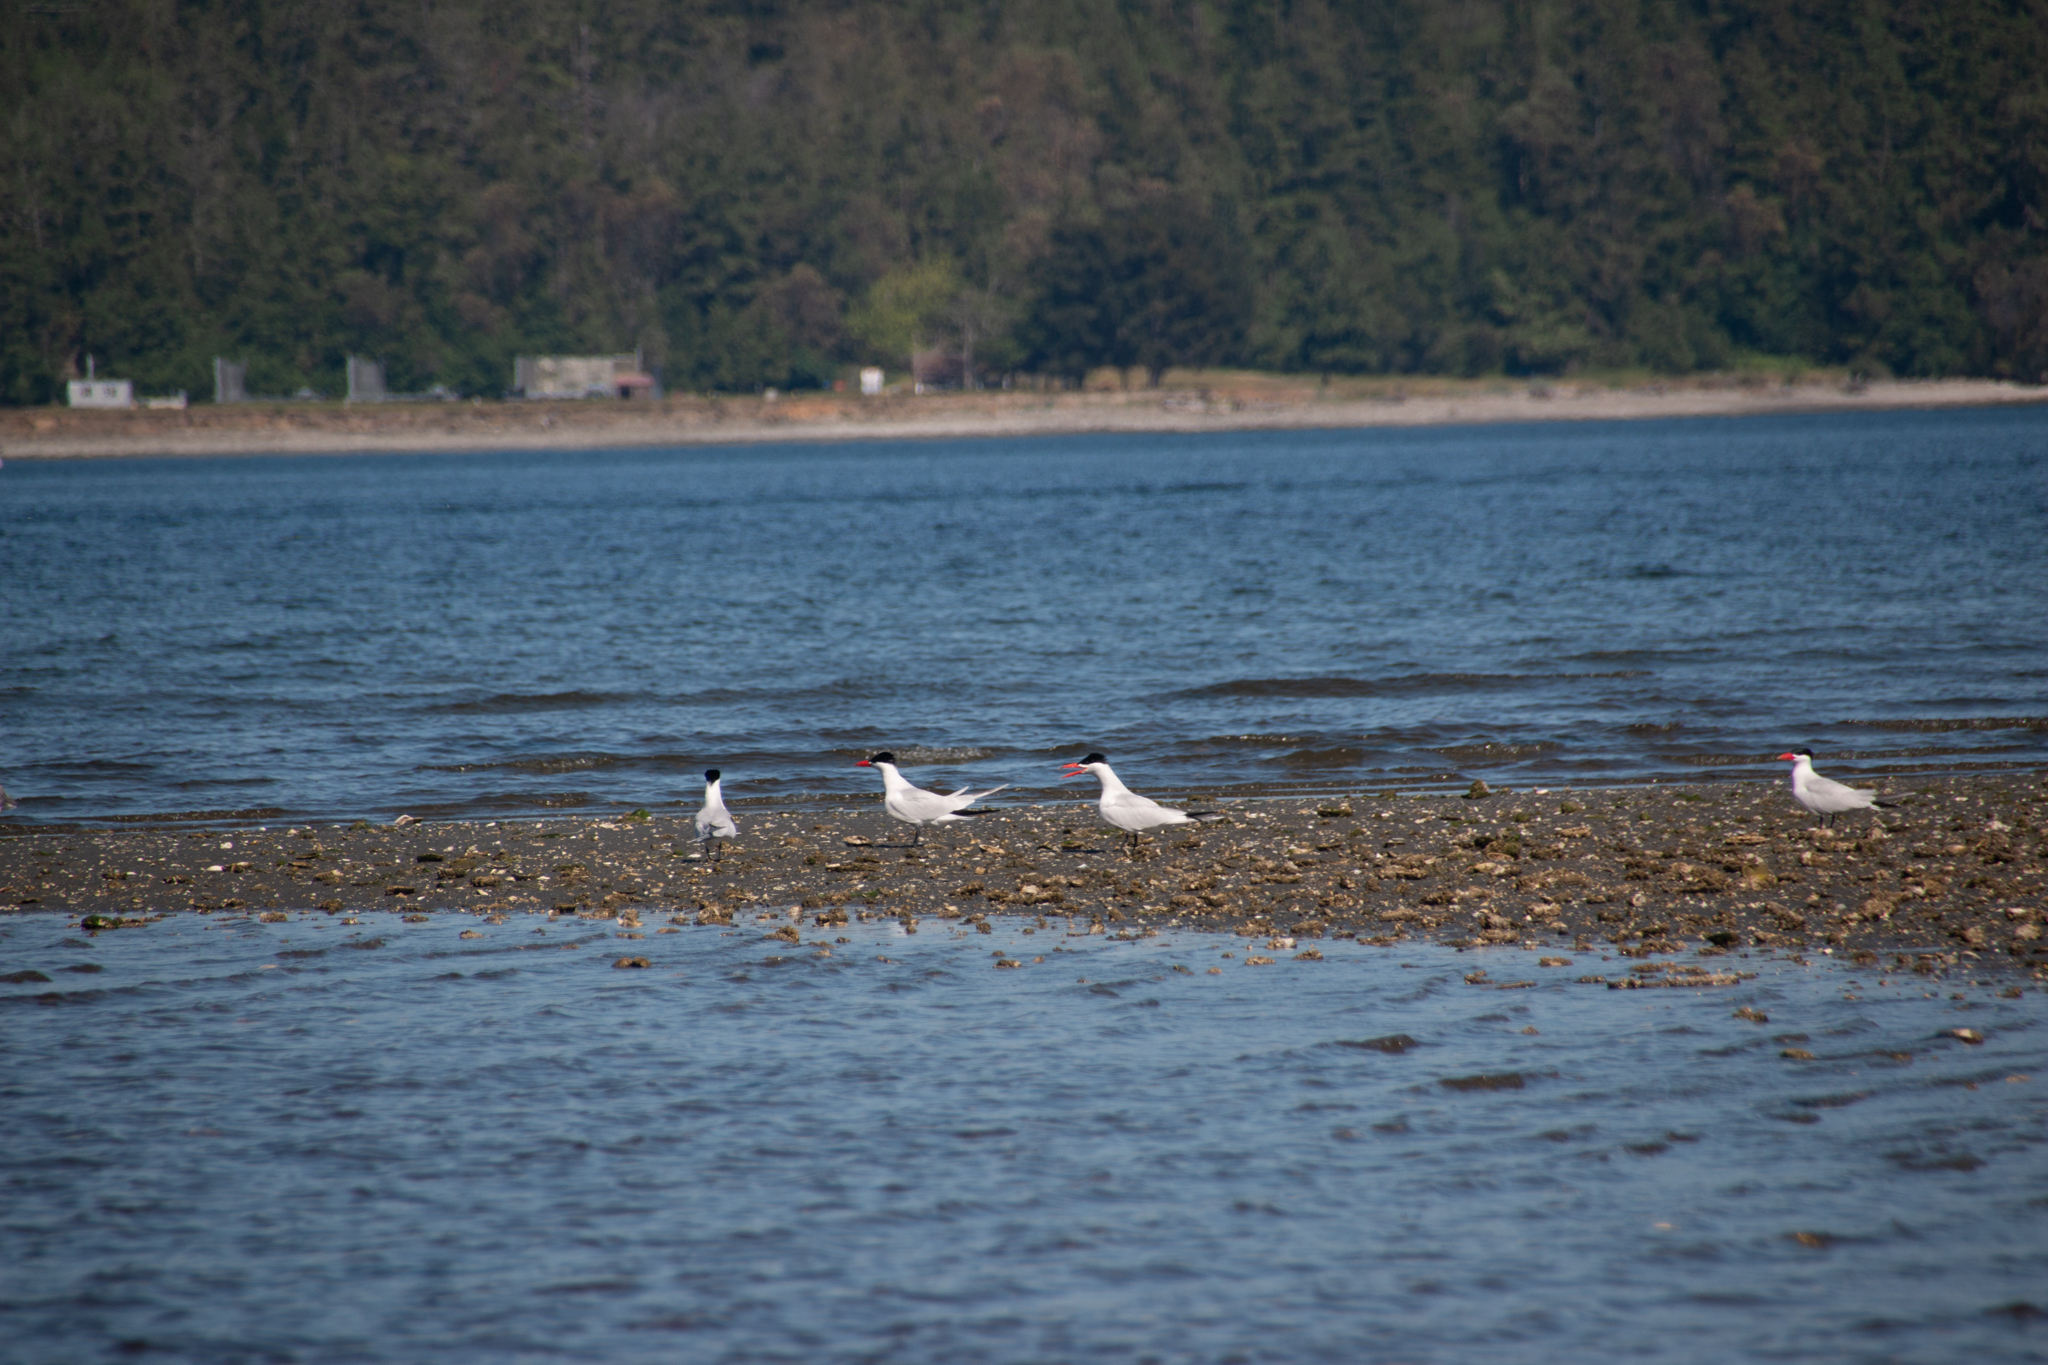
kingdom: Animalia
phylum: Chordata
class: Aves
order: Charadriiformes
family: Laridae
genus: Hydroprogne
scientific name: Hydroprogne caspia
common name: Caspian tern
